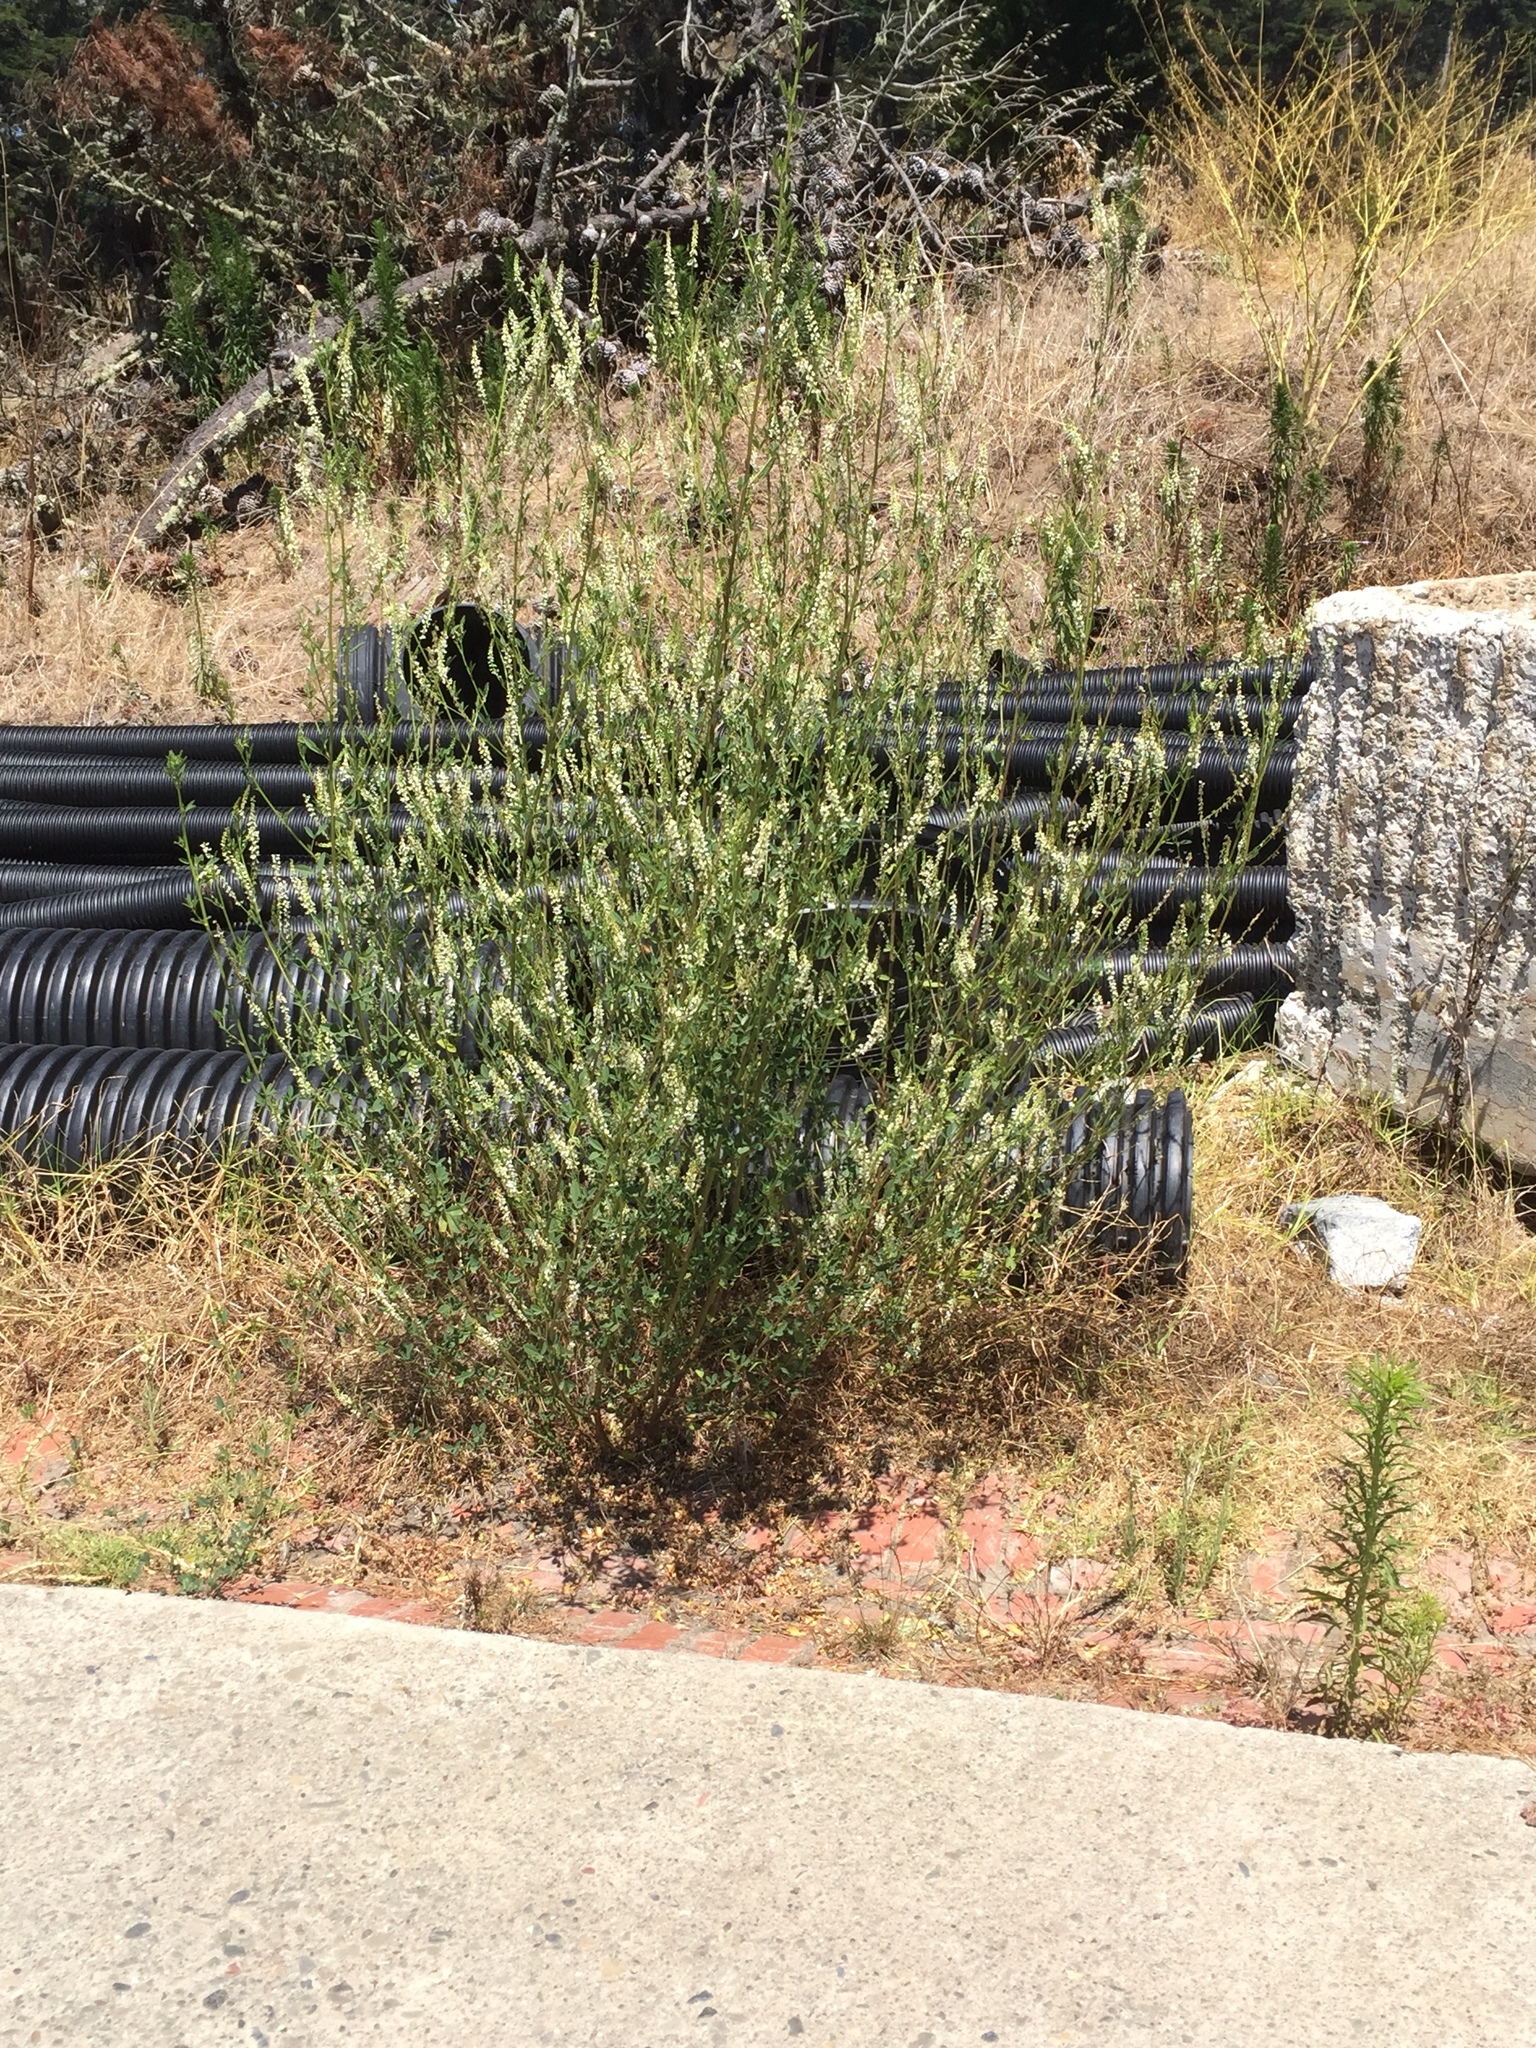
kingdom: Plantae
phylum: Tracheophyta
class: Magnoliopsida
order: Fabales
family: Fabaceae
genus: Melilotus
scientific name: Melilotus albus
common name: White melilot
